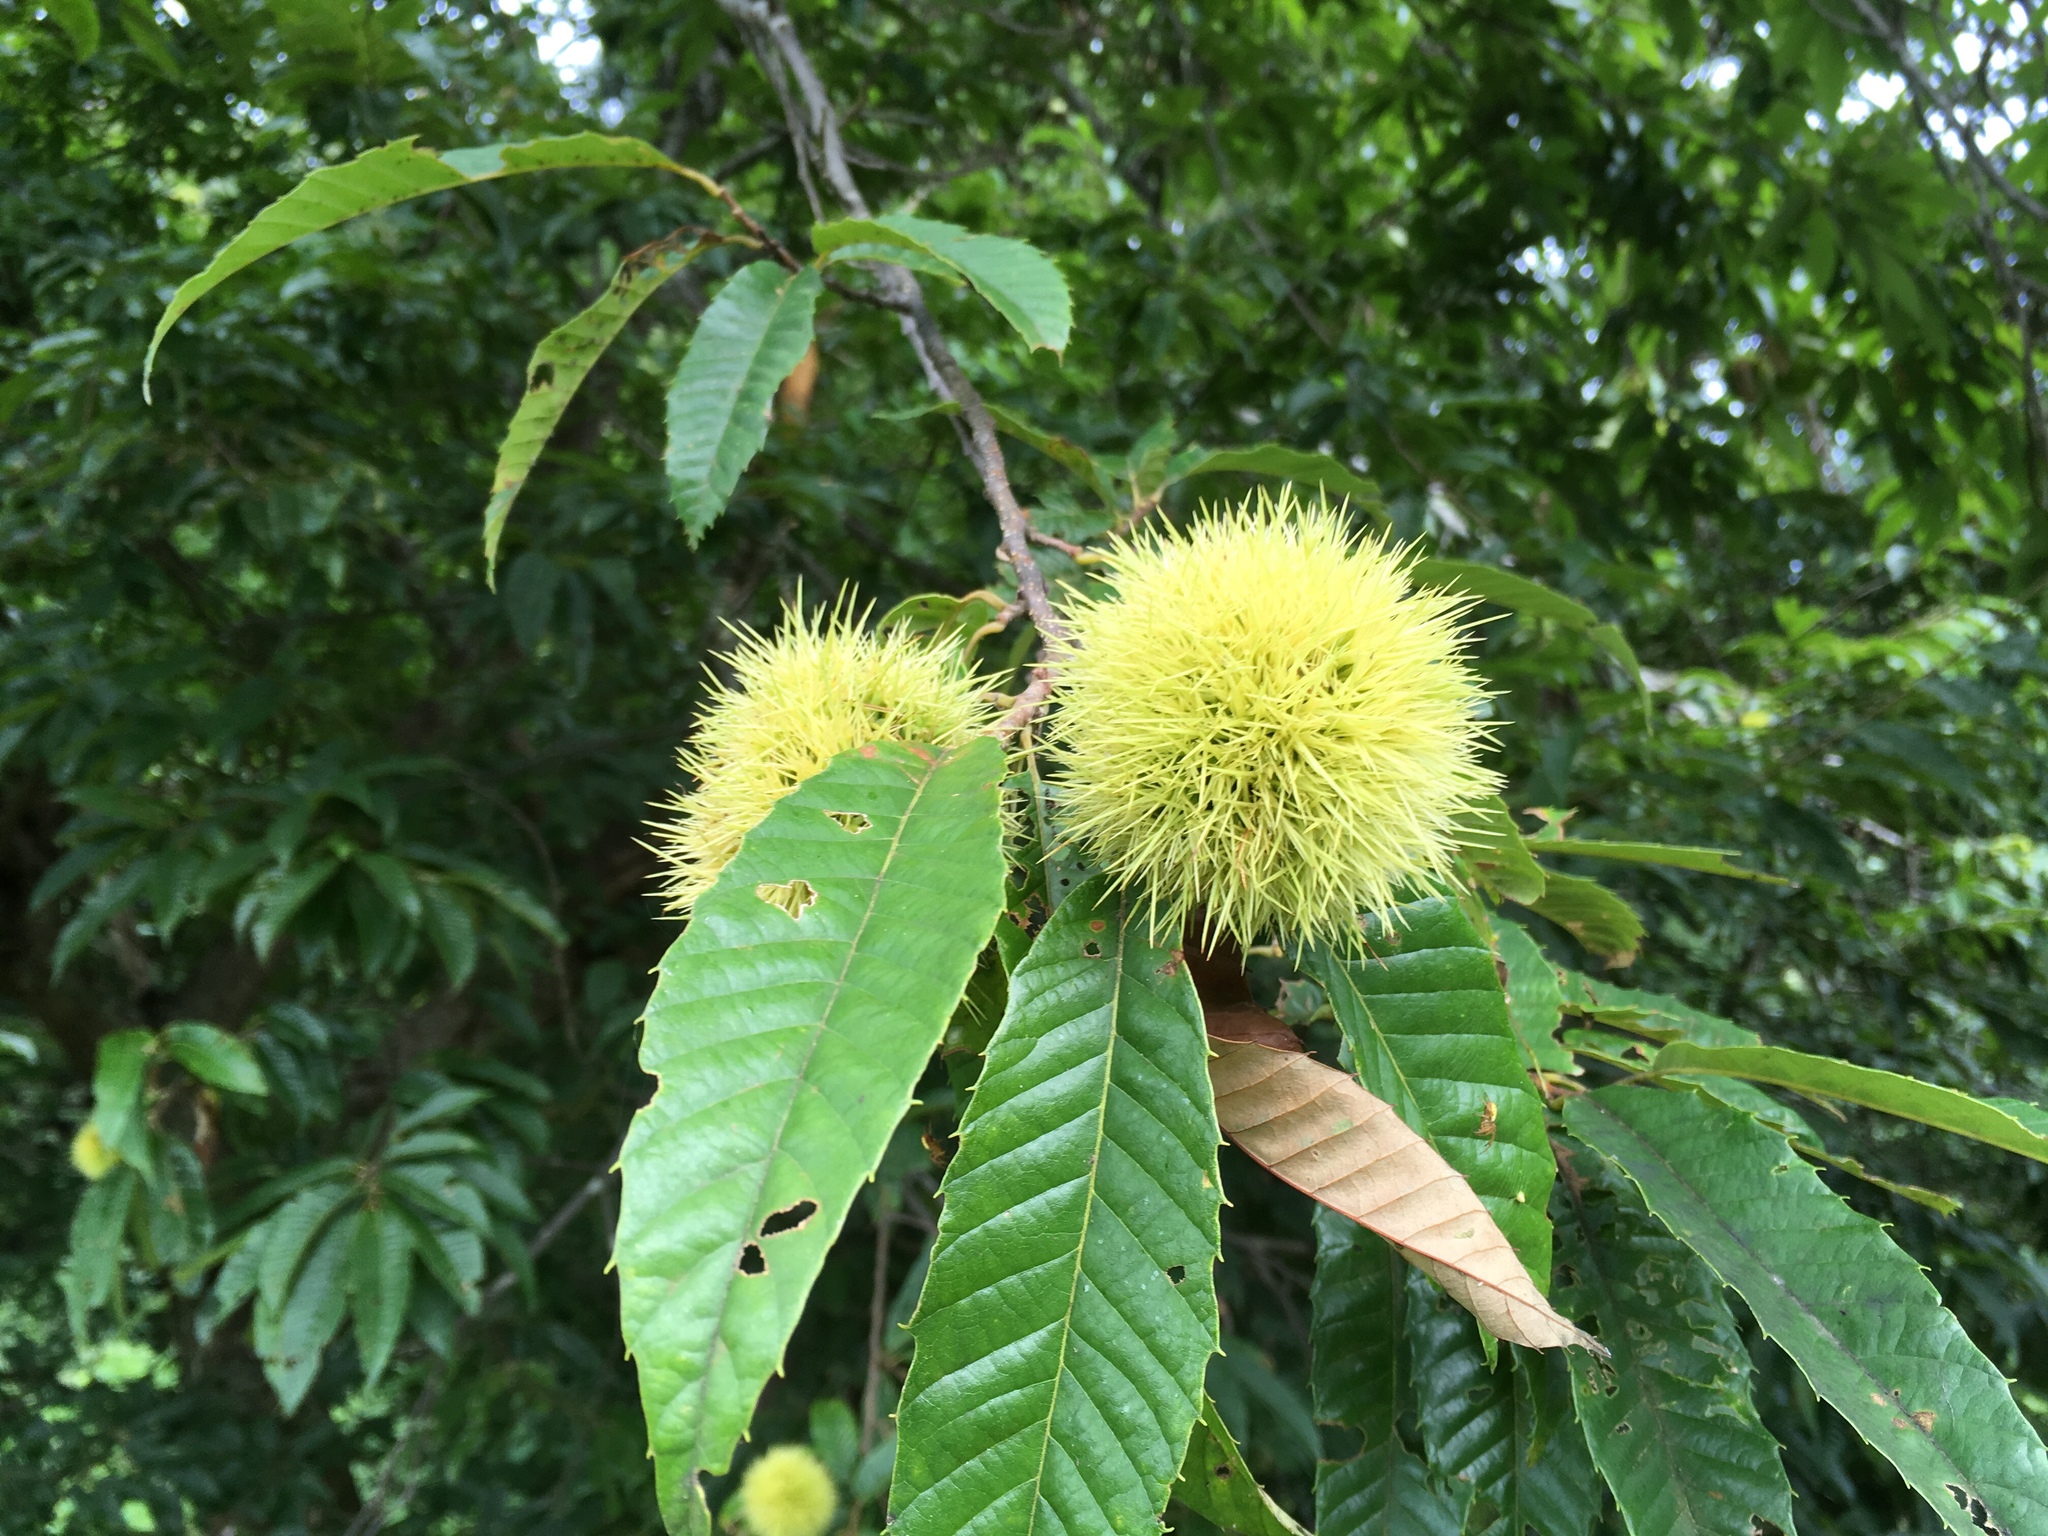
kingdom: Plantae
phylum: Tracheophyta
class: Magnoliopsida
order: Fagales
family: Fagaceae
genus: Castanea
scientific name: Castanea crenata
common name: Japanese chestnut
